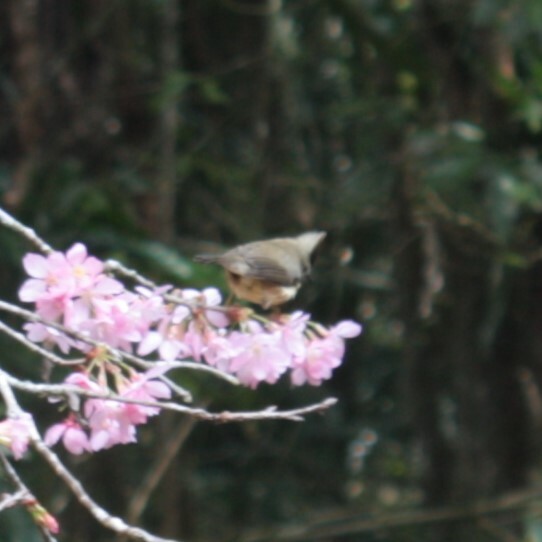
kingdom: Animalia
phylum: Chordata
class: Aves
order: Passeriformes
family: Zosteropidae
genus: Yuhina
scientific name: Yuhina brunneiceps
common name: Taiwan yuhina
